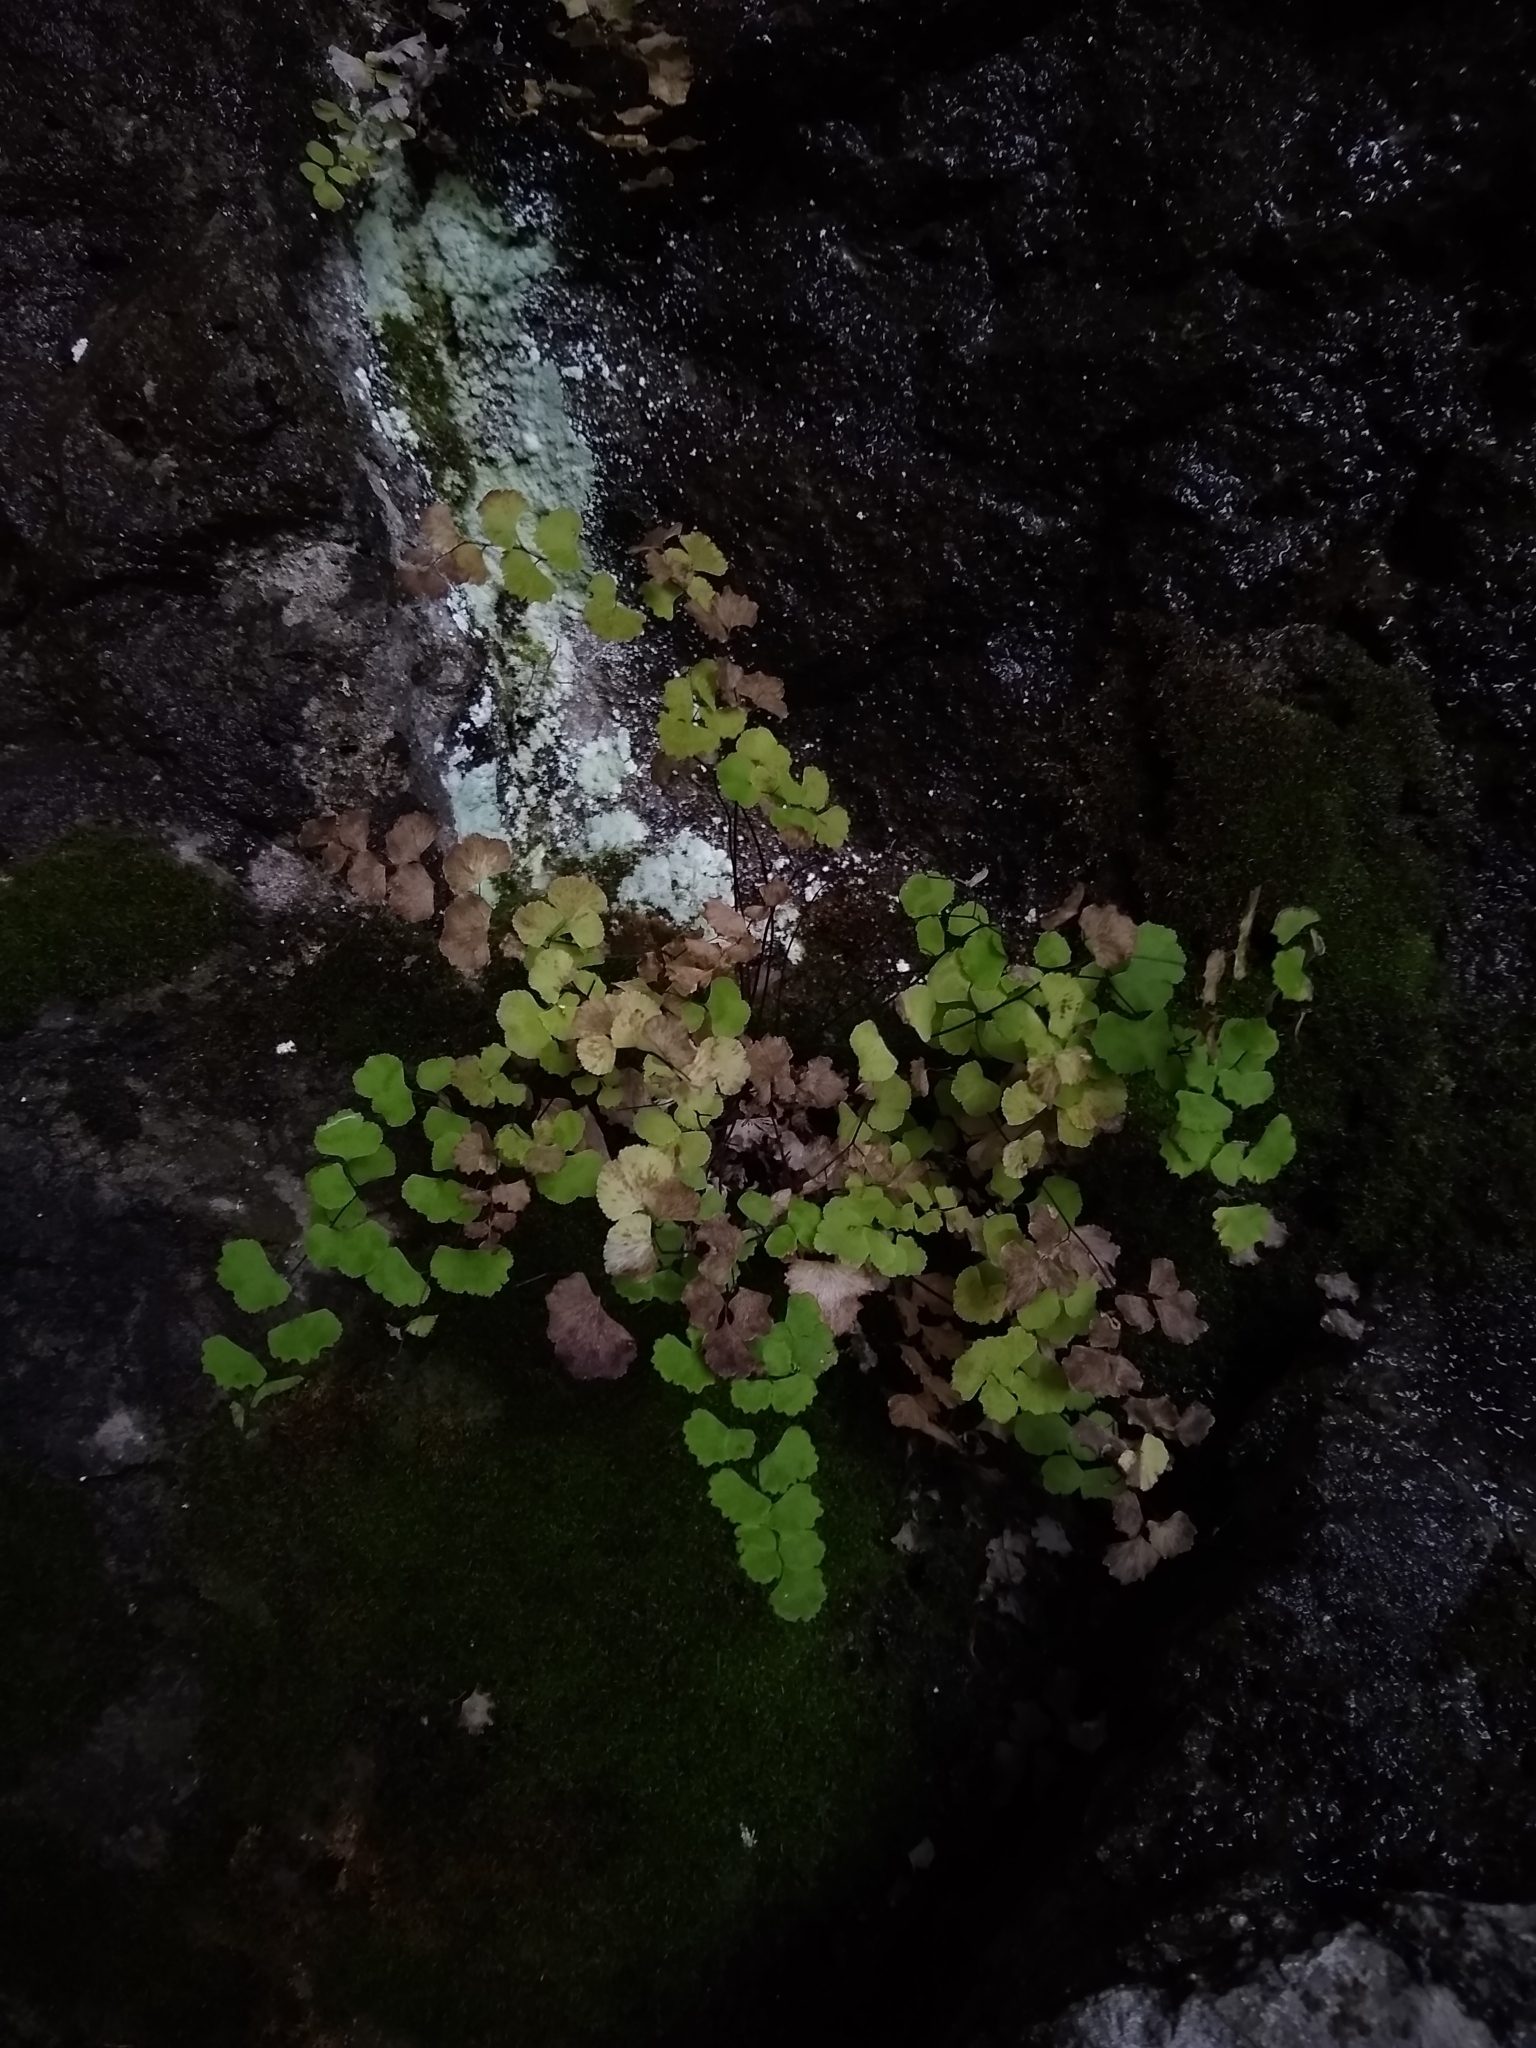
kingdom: Plantae
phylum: Tracheophyta
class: Polypodiopsida
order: Polypodiales
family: Pteridaceae
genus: Adiantum
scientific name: Adiantum sulphureum
